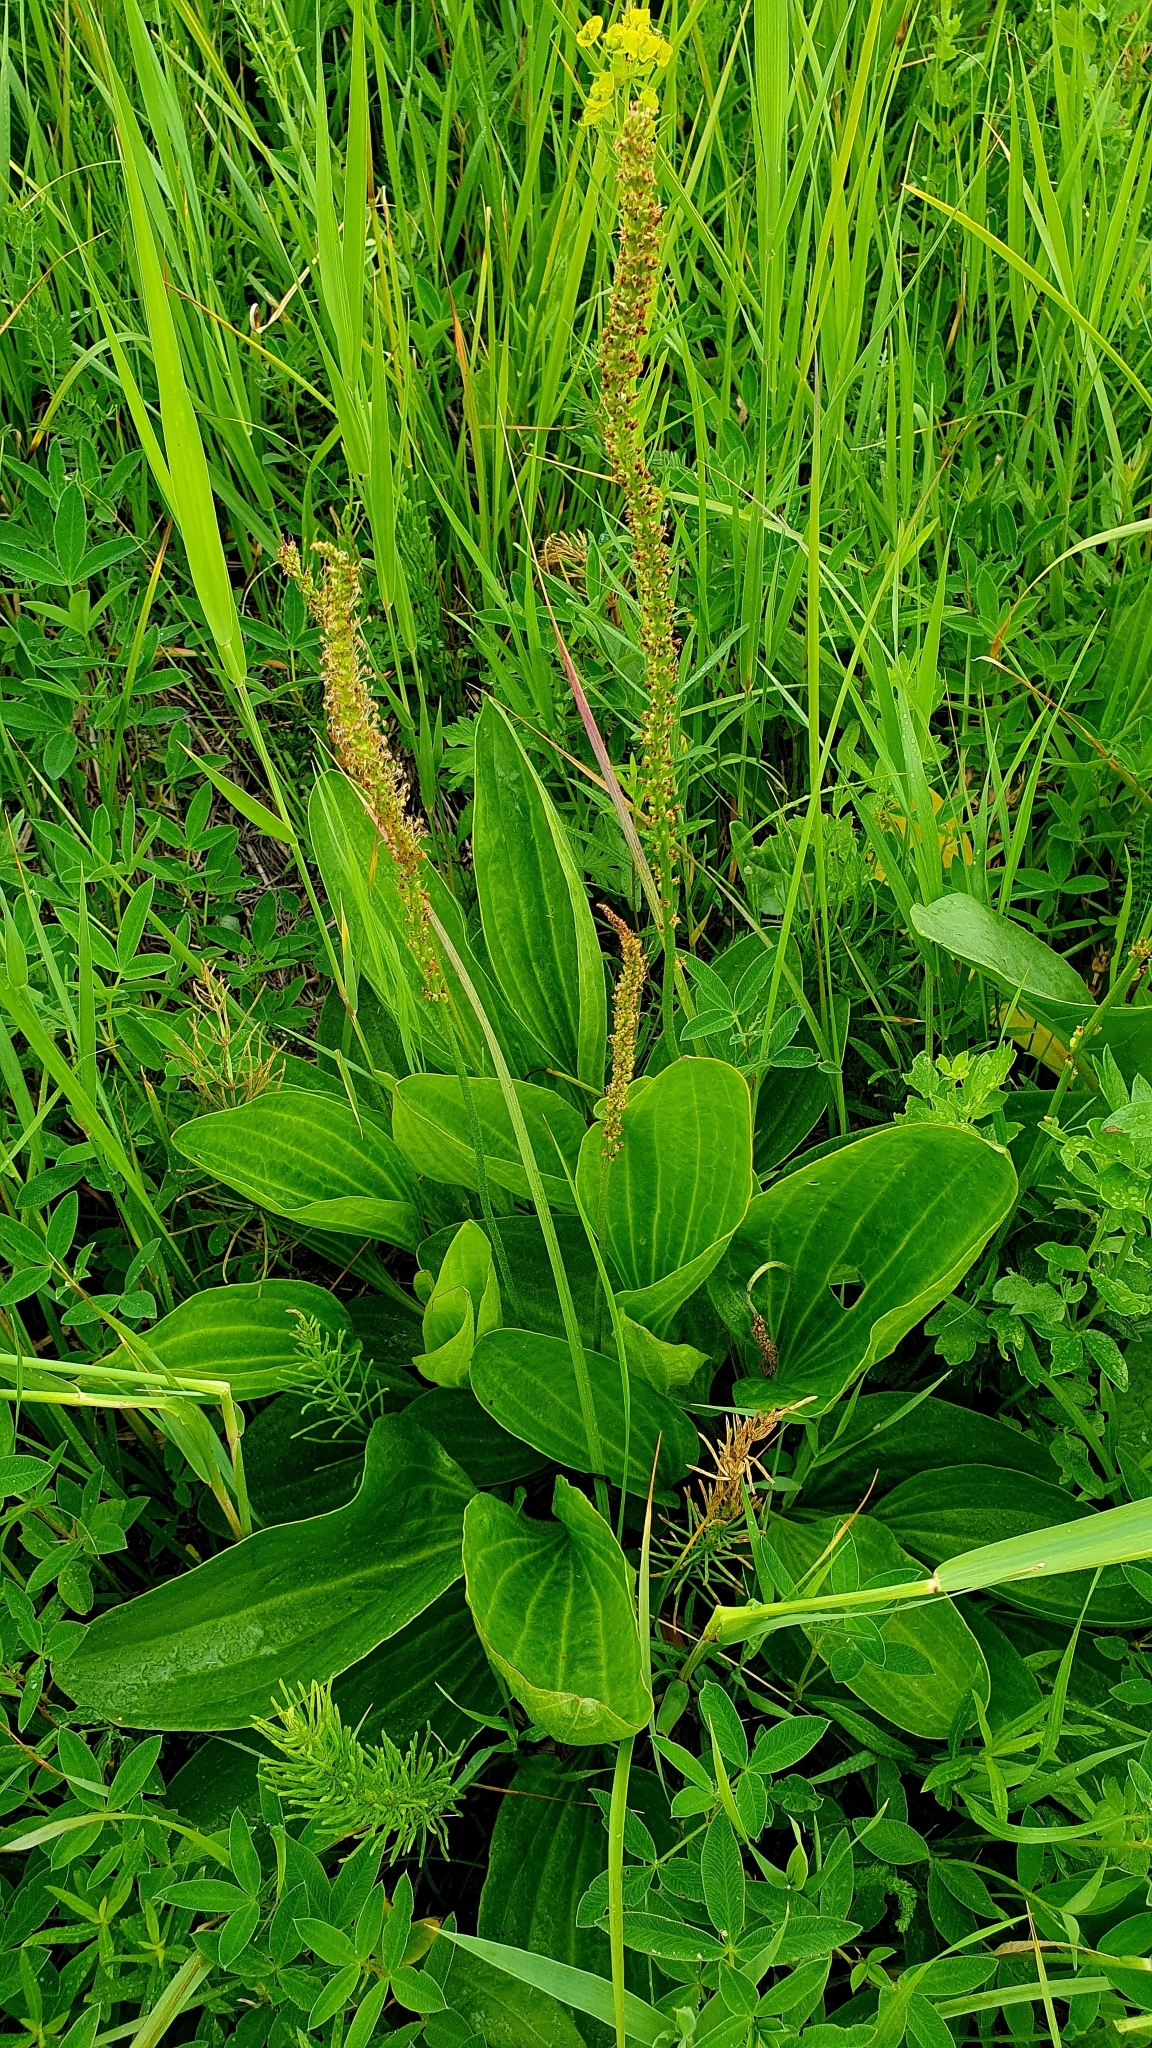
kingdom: Plantae
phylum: Tracheophyta
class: Magnoliopsida
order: Lamiales
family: Plantaginaceae
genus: Plantago
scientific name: Plantago cornuti
